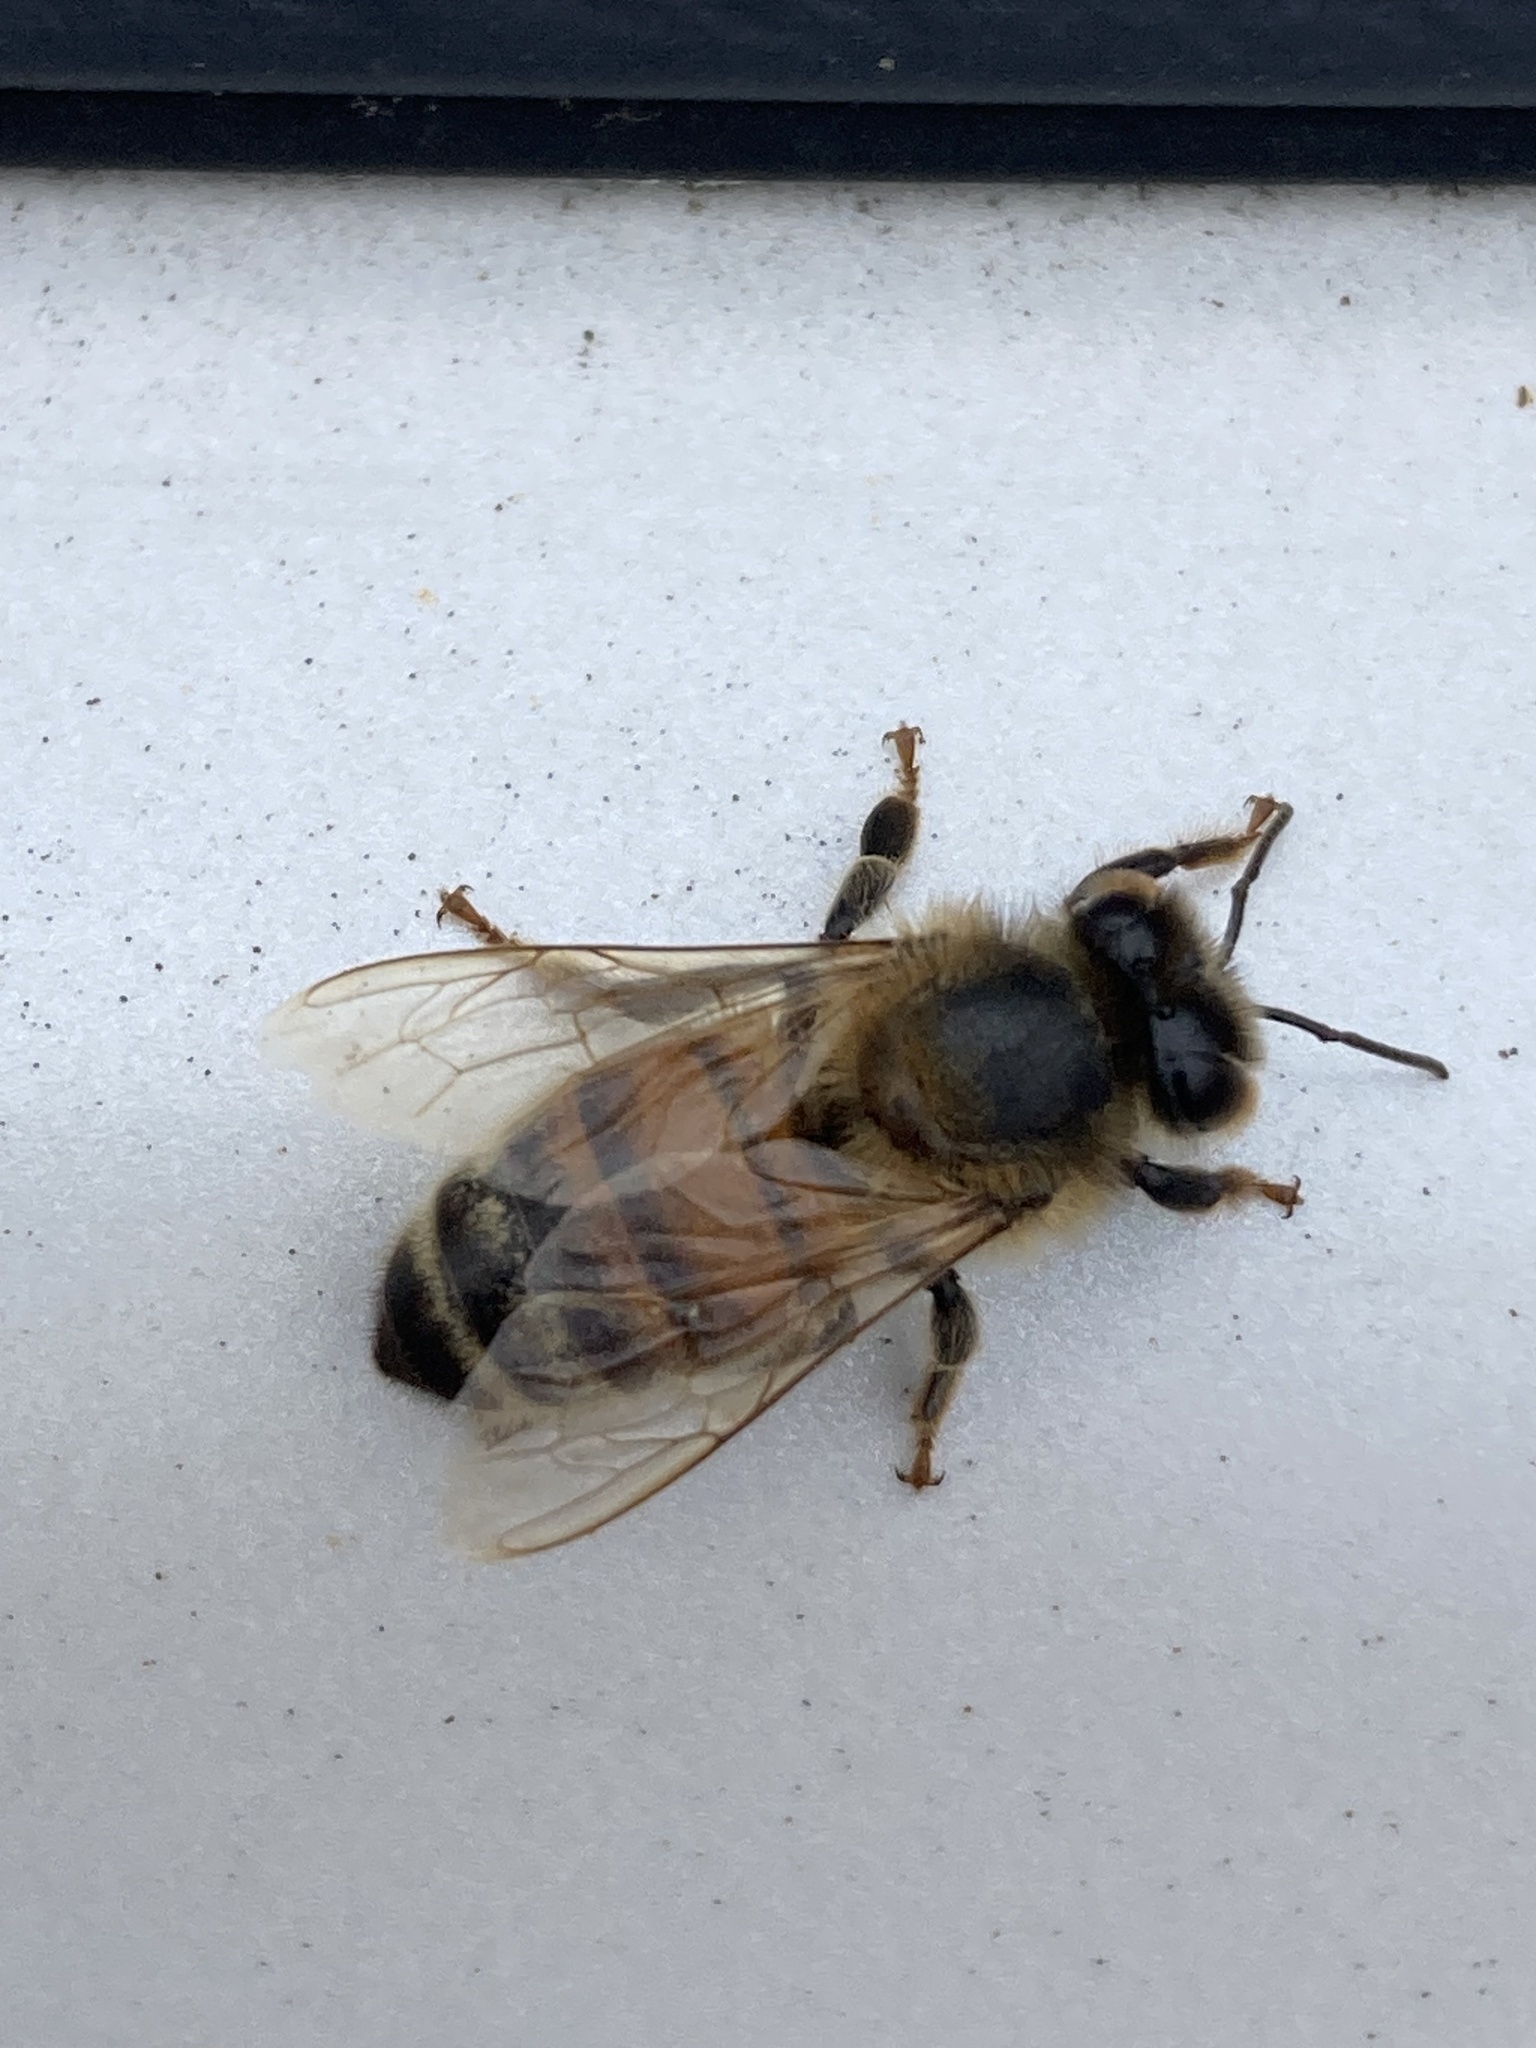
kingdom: Animalia
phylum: Arthropoda
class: Insecta
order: Hymenoptera
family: Apidae
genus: Apis
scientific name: Apis mellifera
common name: Honey bee
